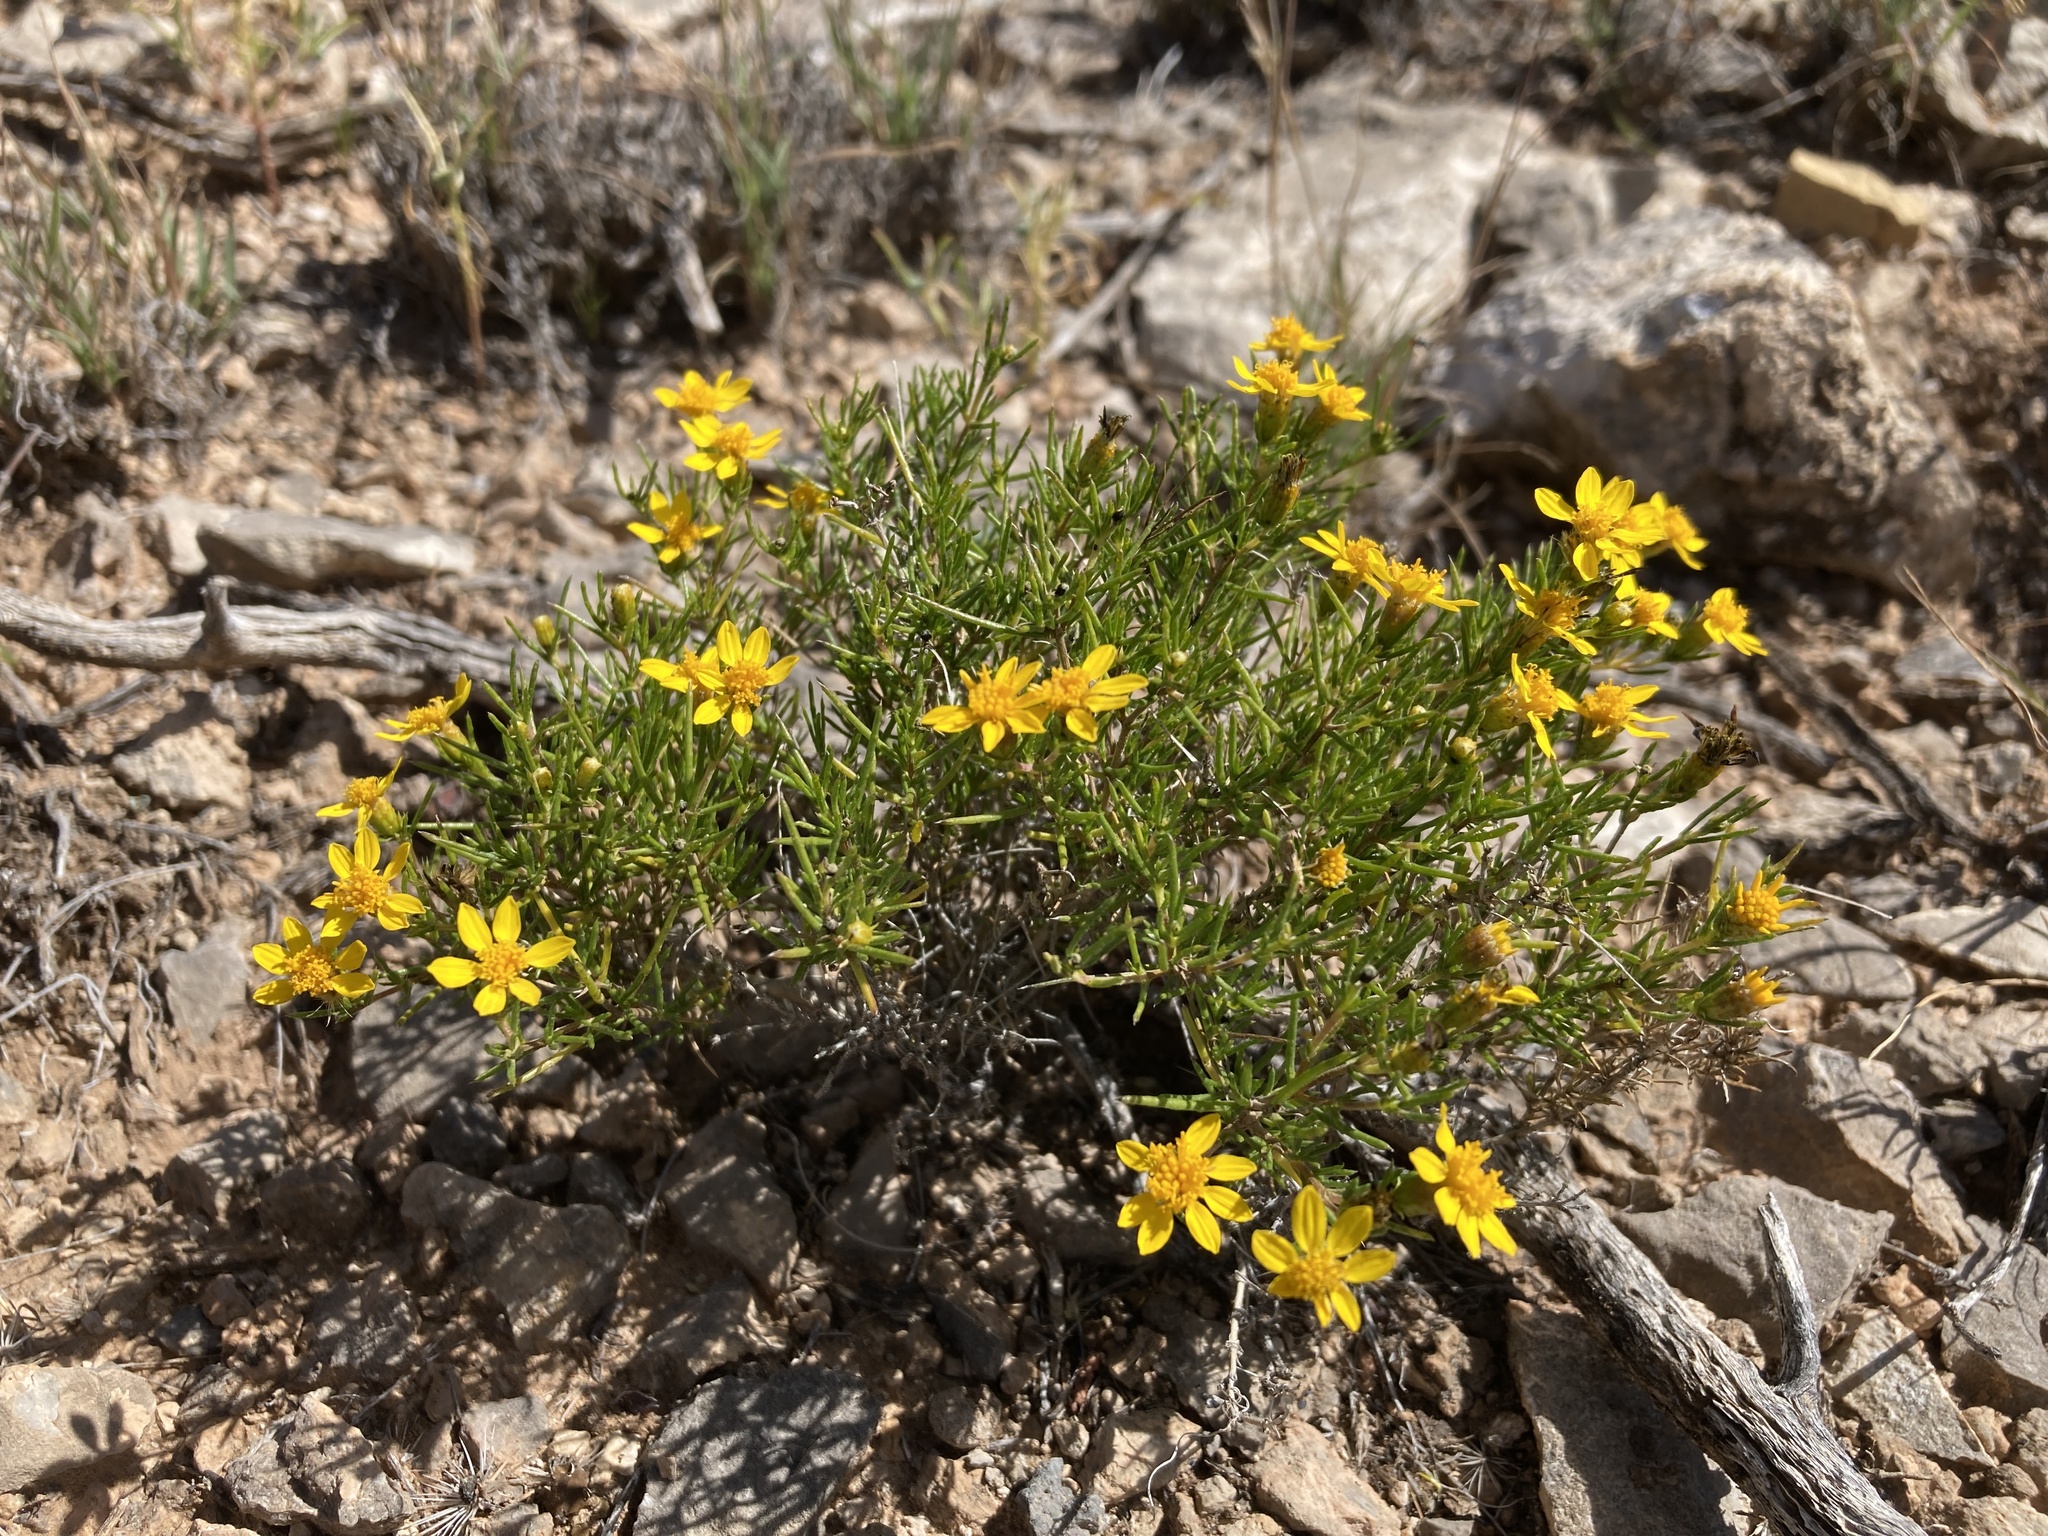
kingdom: Plantae
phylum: Tracheophyta
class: Magnoliopsida
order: Asterales
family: Asteraceae
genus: Thymophylla
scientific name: Thymophylla acerosa
